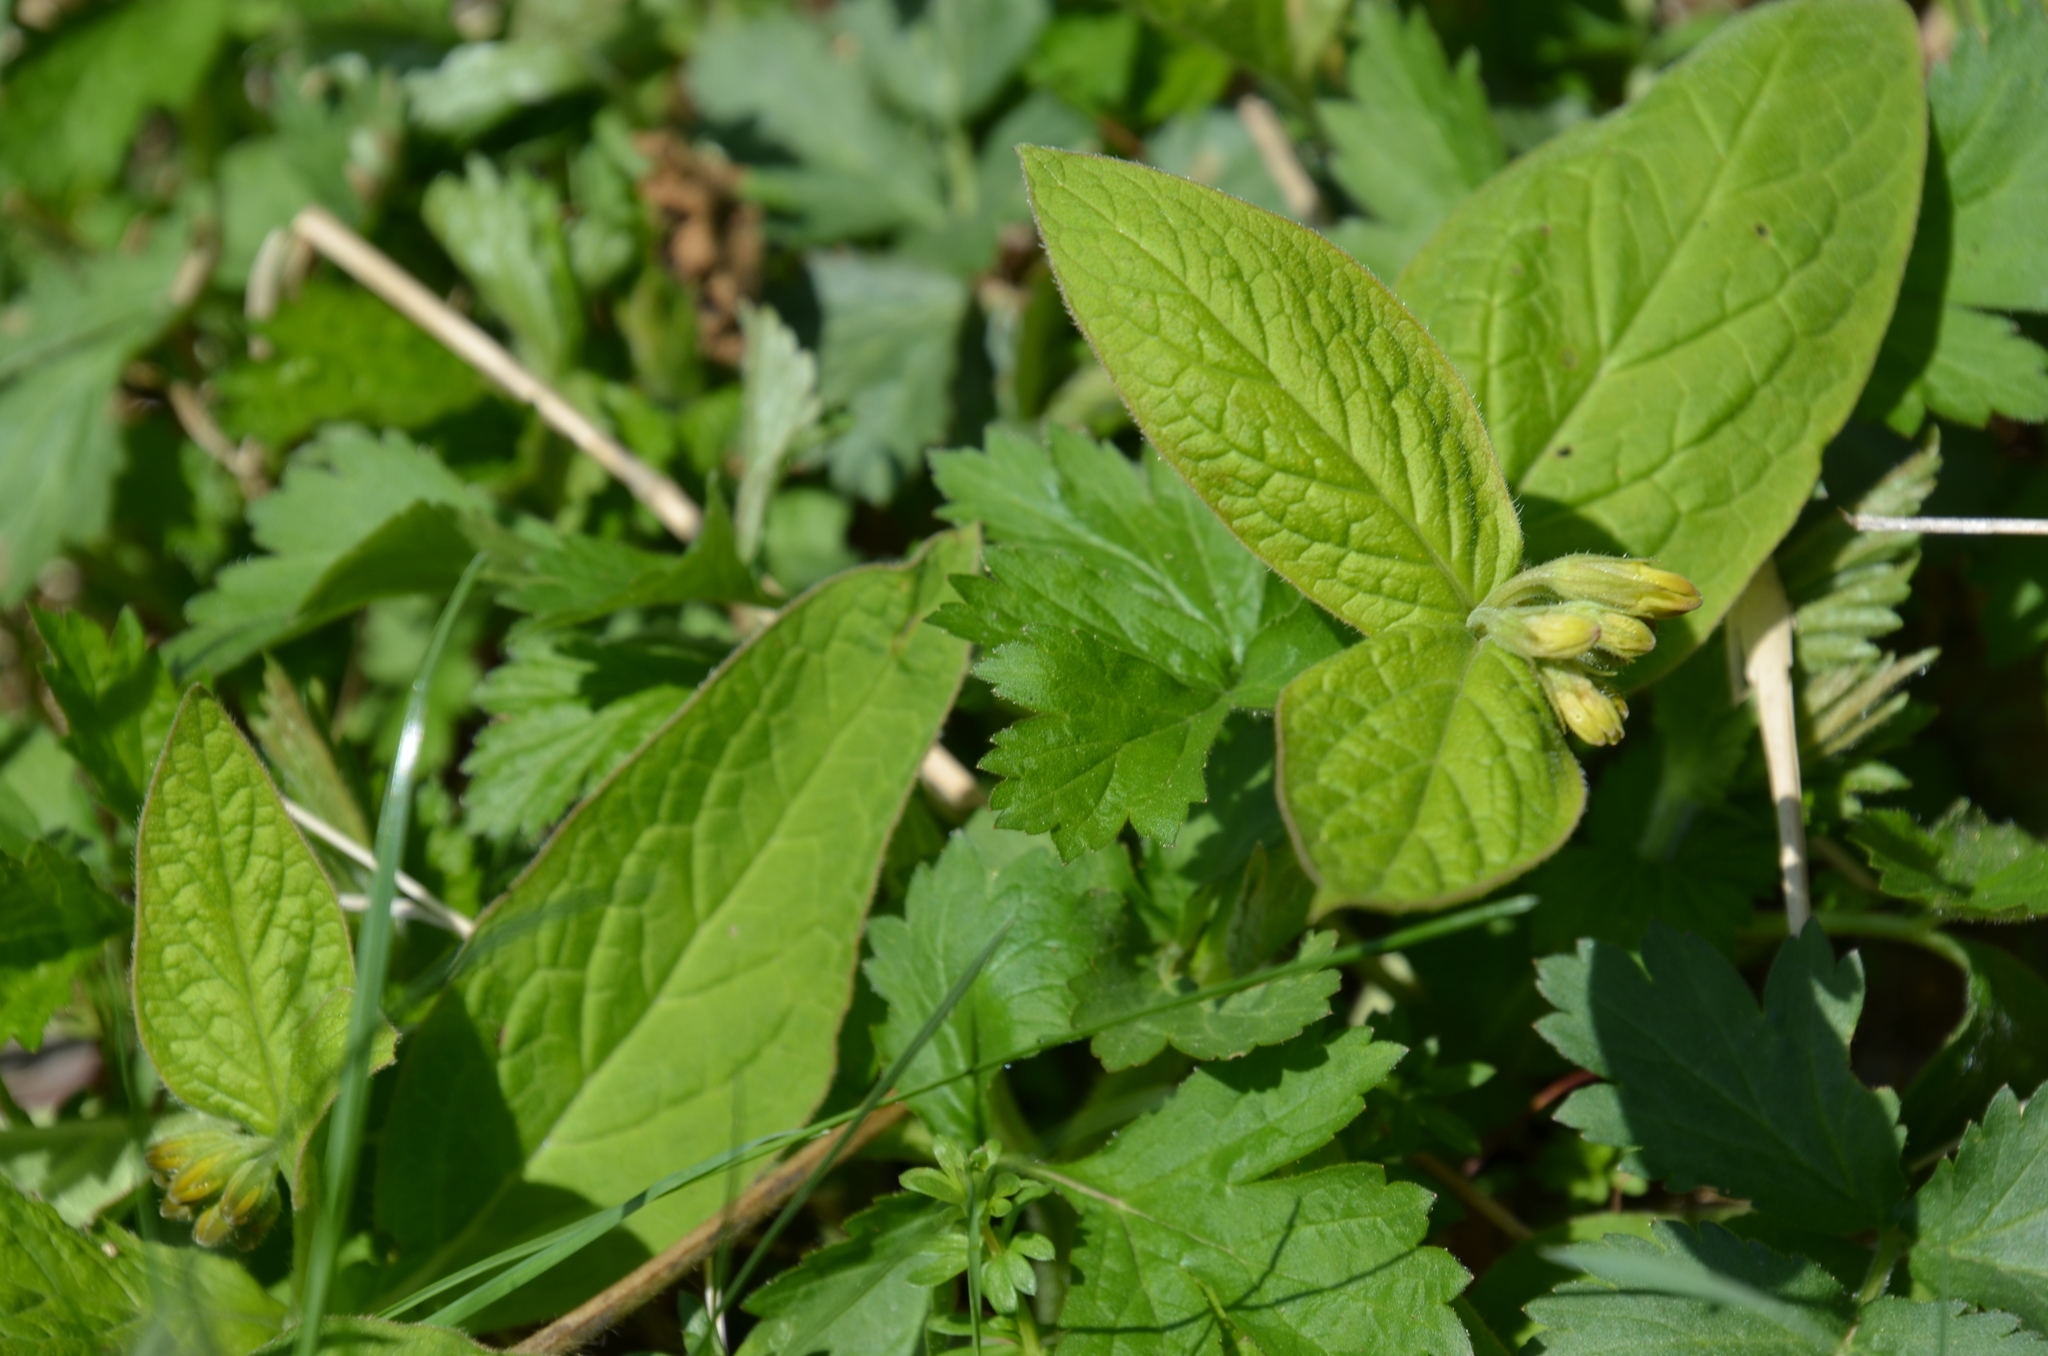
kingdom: Plantae
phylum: Tracheophyta
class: Magnoliopsida
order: Boraginales
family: Boraginaceae
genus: Symphytum
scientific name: Symphytum tuberosum
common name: Tuberous comfrey
